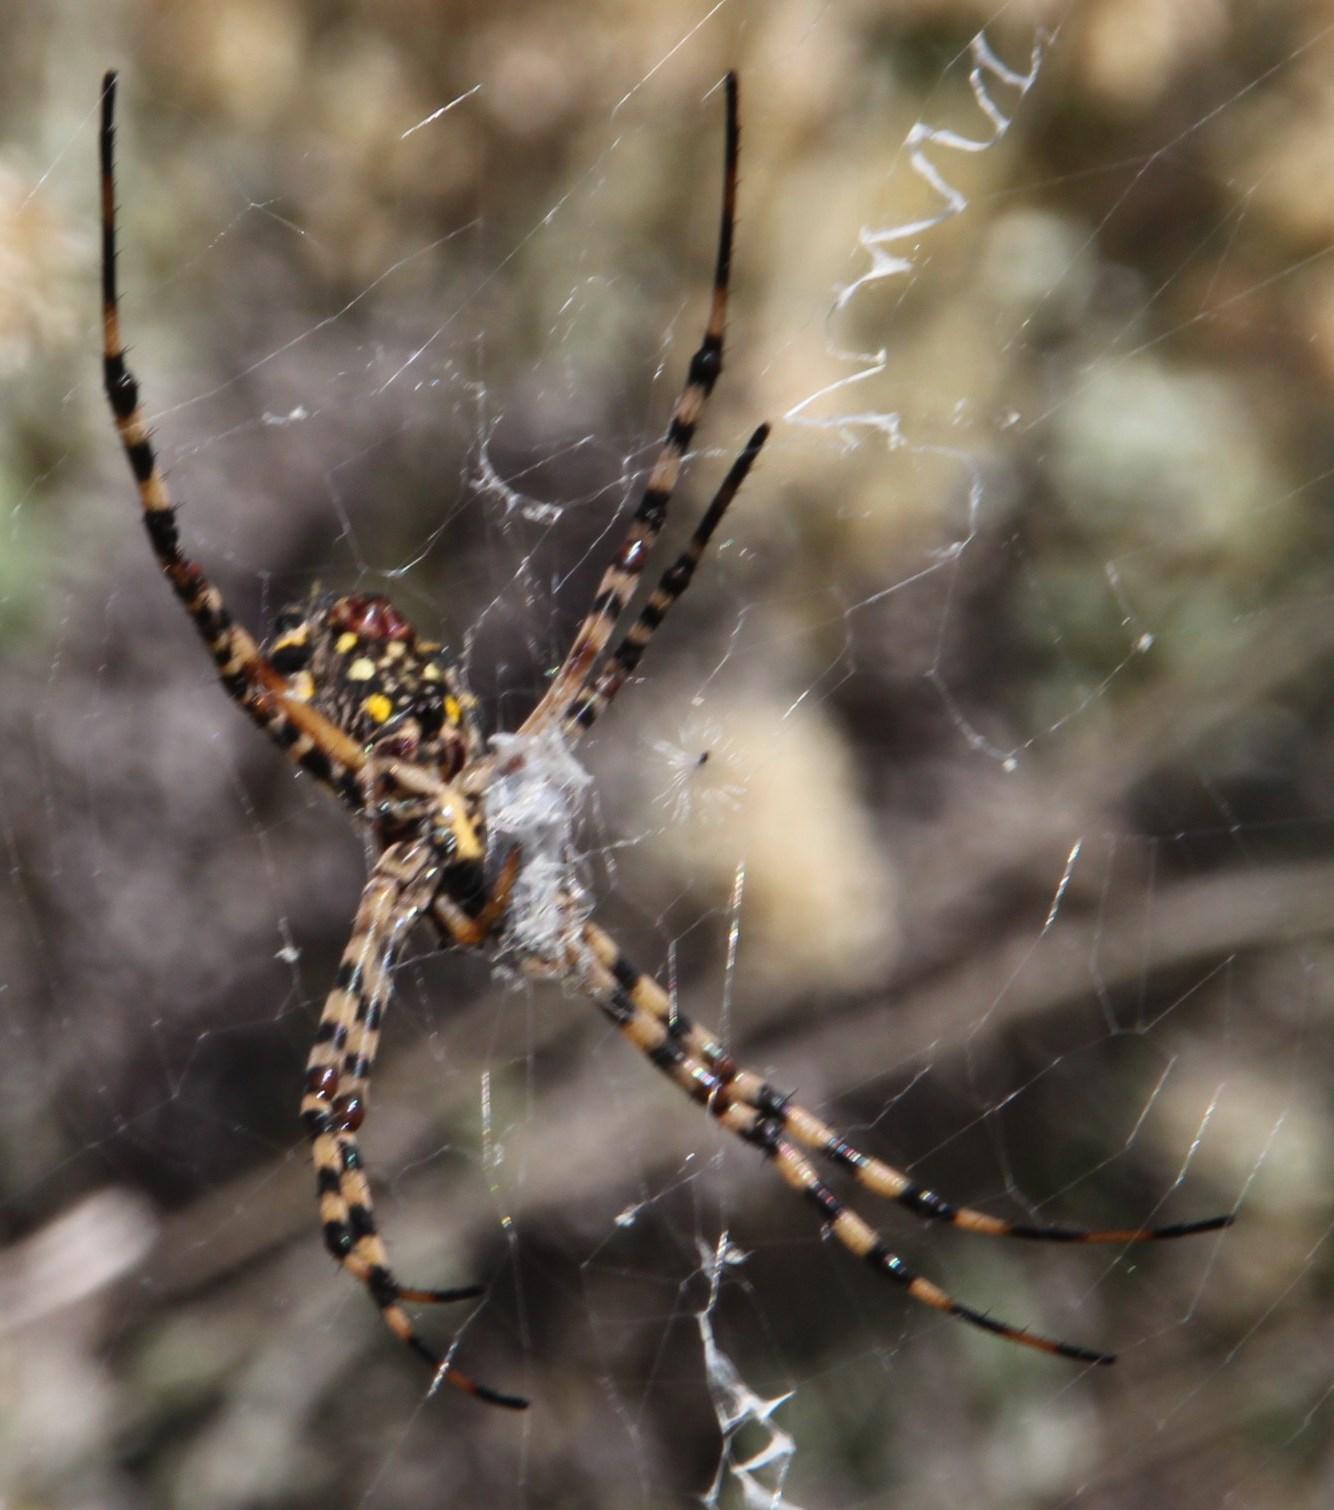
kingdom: Animalia
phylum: Arthropoda
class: Arachnida
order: Araneae
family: Araneidae
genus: Argiope
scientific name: Argiope australis
